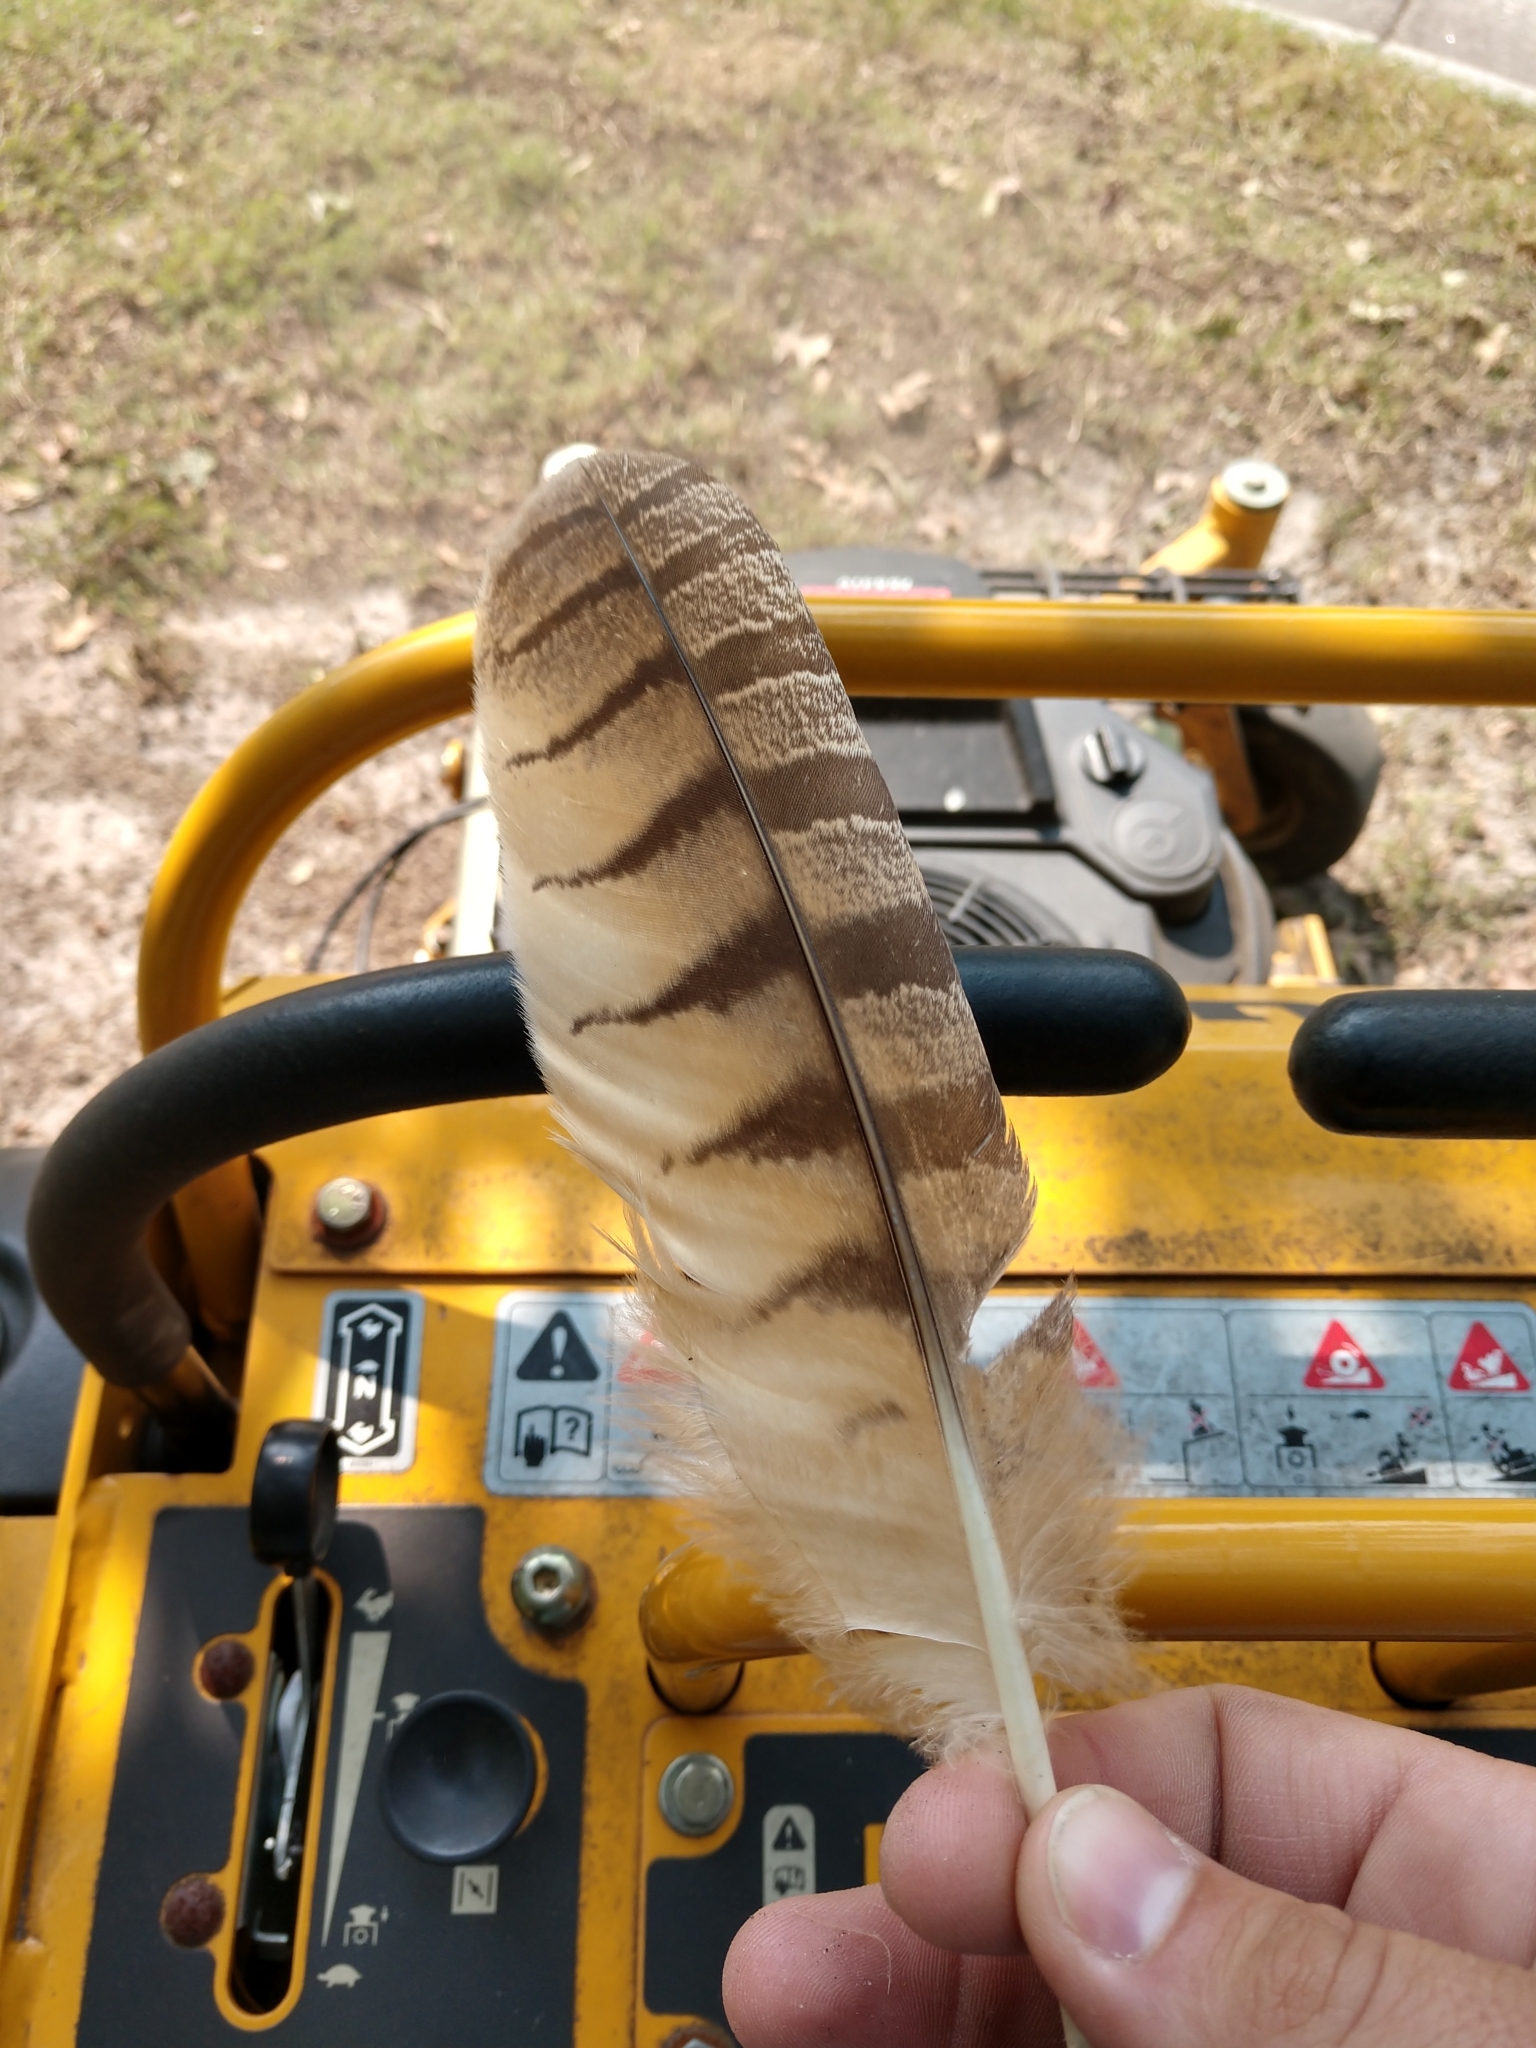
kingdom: Animalia
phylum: Chordata
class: Aves
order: Strigiformes
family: Strigidae
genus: Bubo
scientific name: Bubo virginianus
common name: Great horned owl
